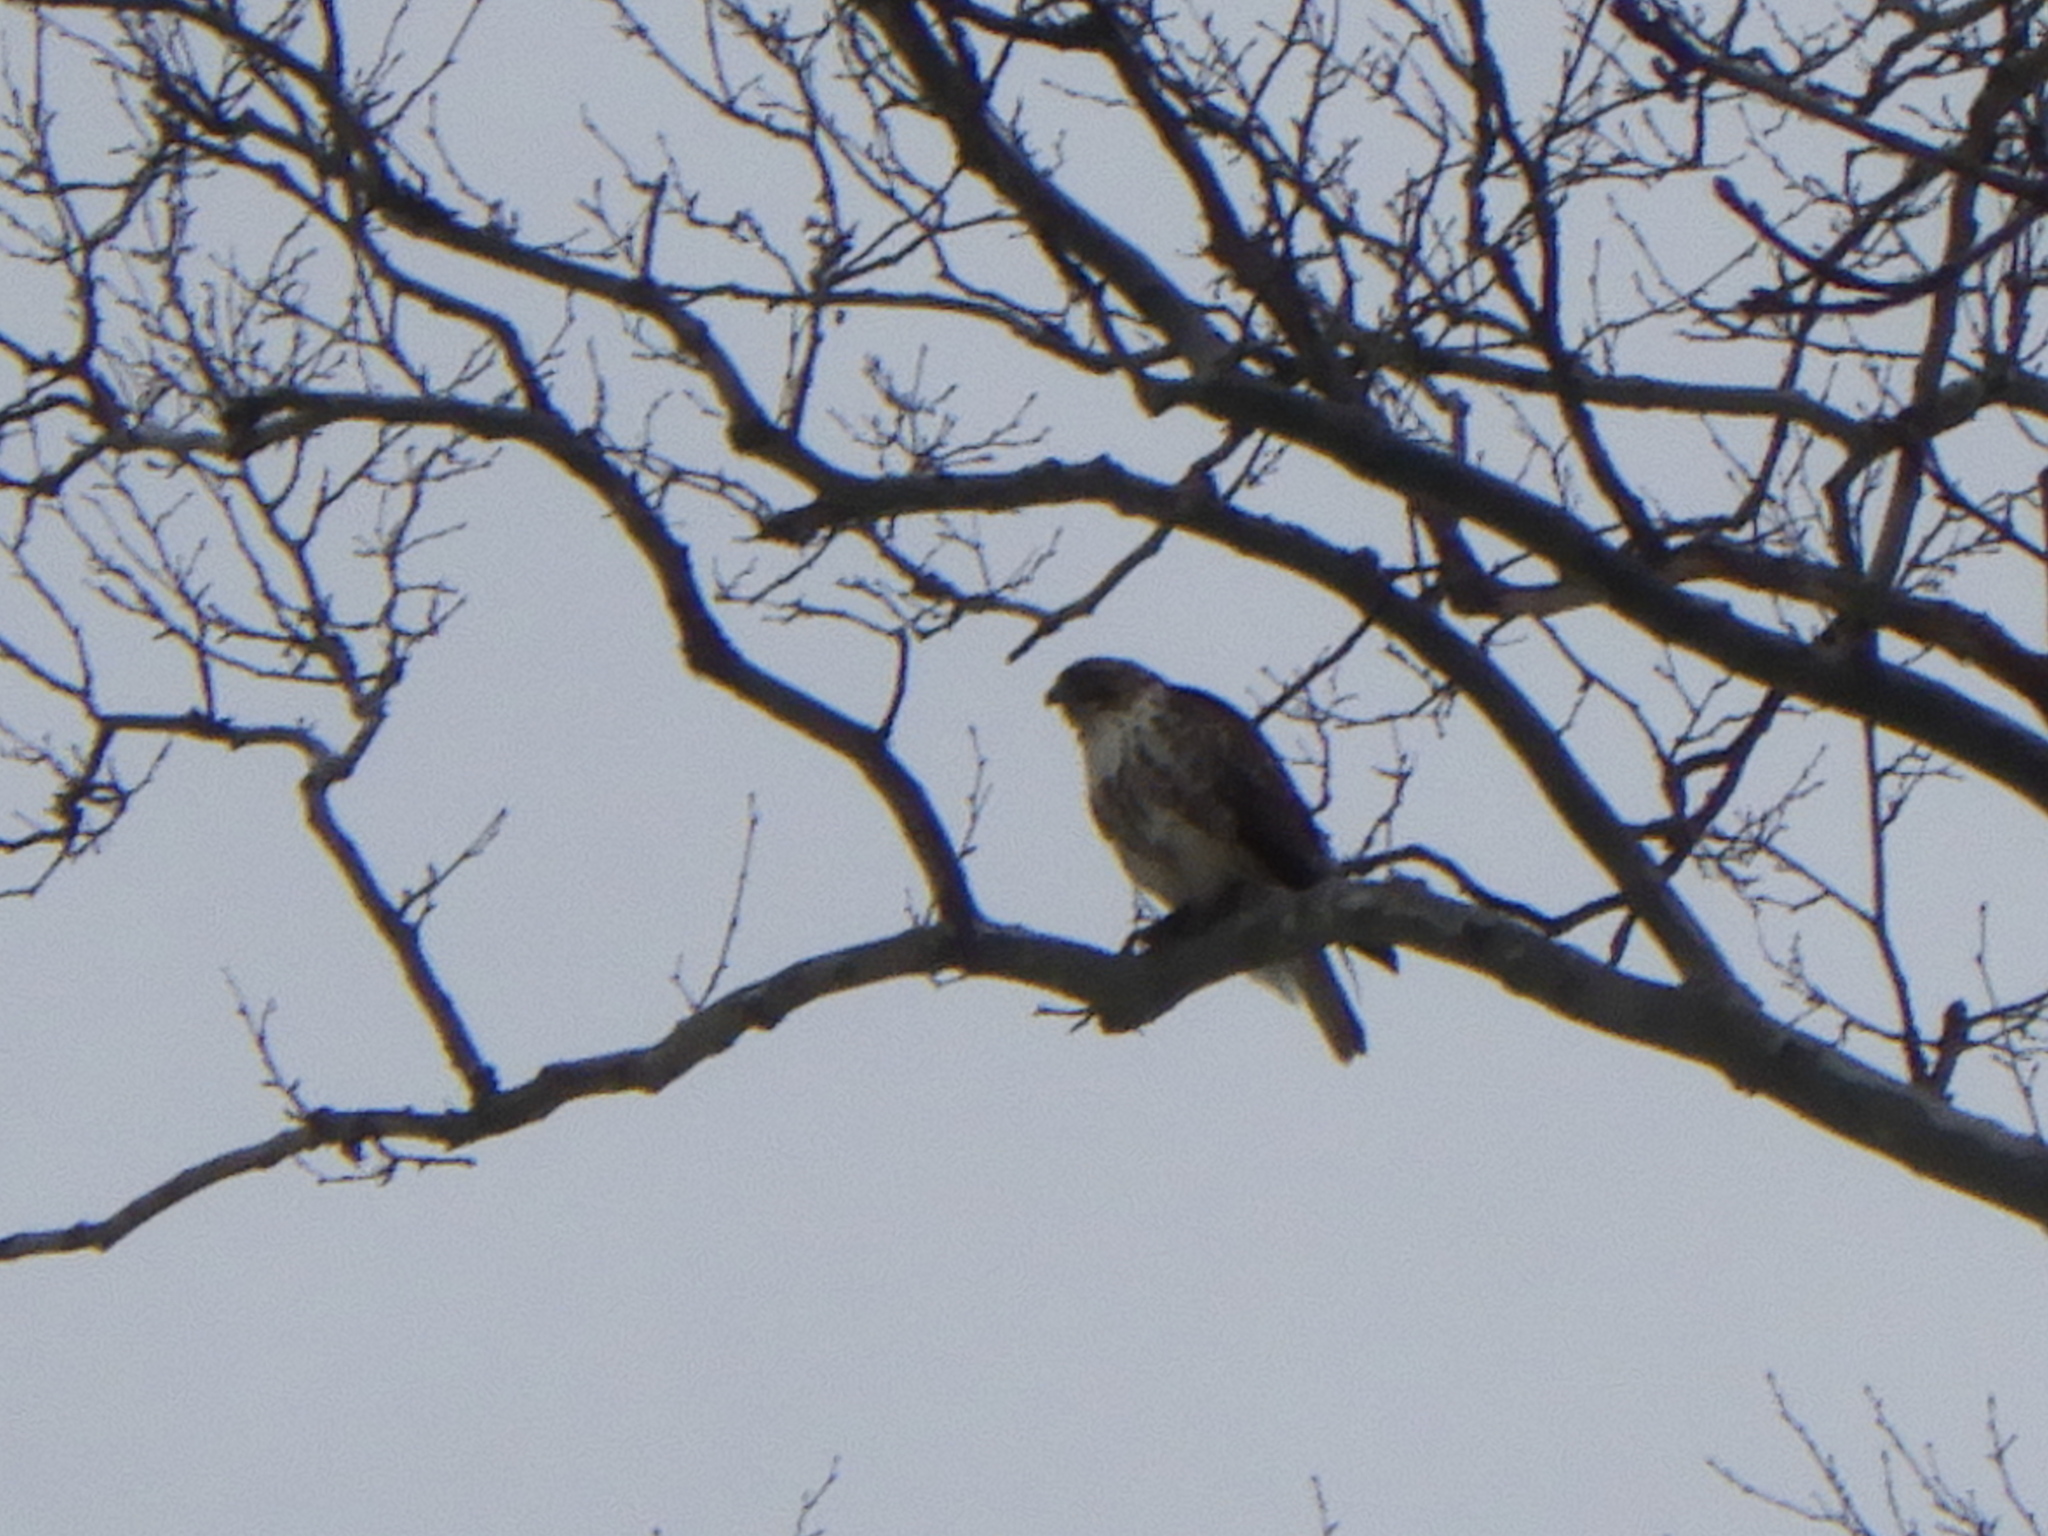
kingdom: Animalia
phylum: Chordata
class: Aves
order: Accipitriformes
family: Accipitridae
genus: Buteo
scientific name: Buteo jamaicensis
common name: Red-tailed hawk
